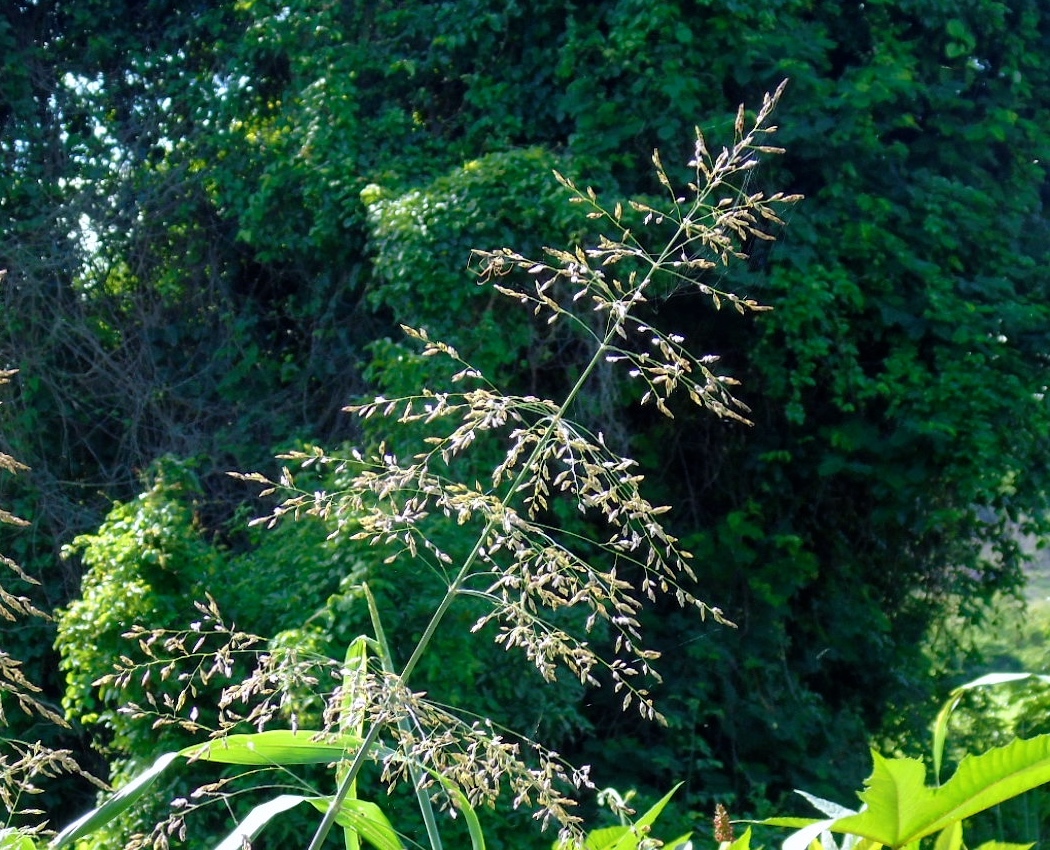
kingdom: Plantae
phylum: Tracheophyta
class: Liliopsida
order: Poales
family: Poaceae
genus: Sorghum
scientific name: Sorghum halepense
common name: Johnson-grass
